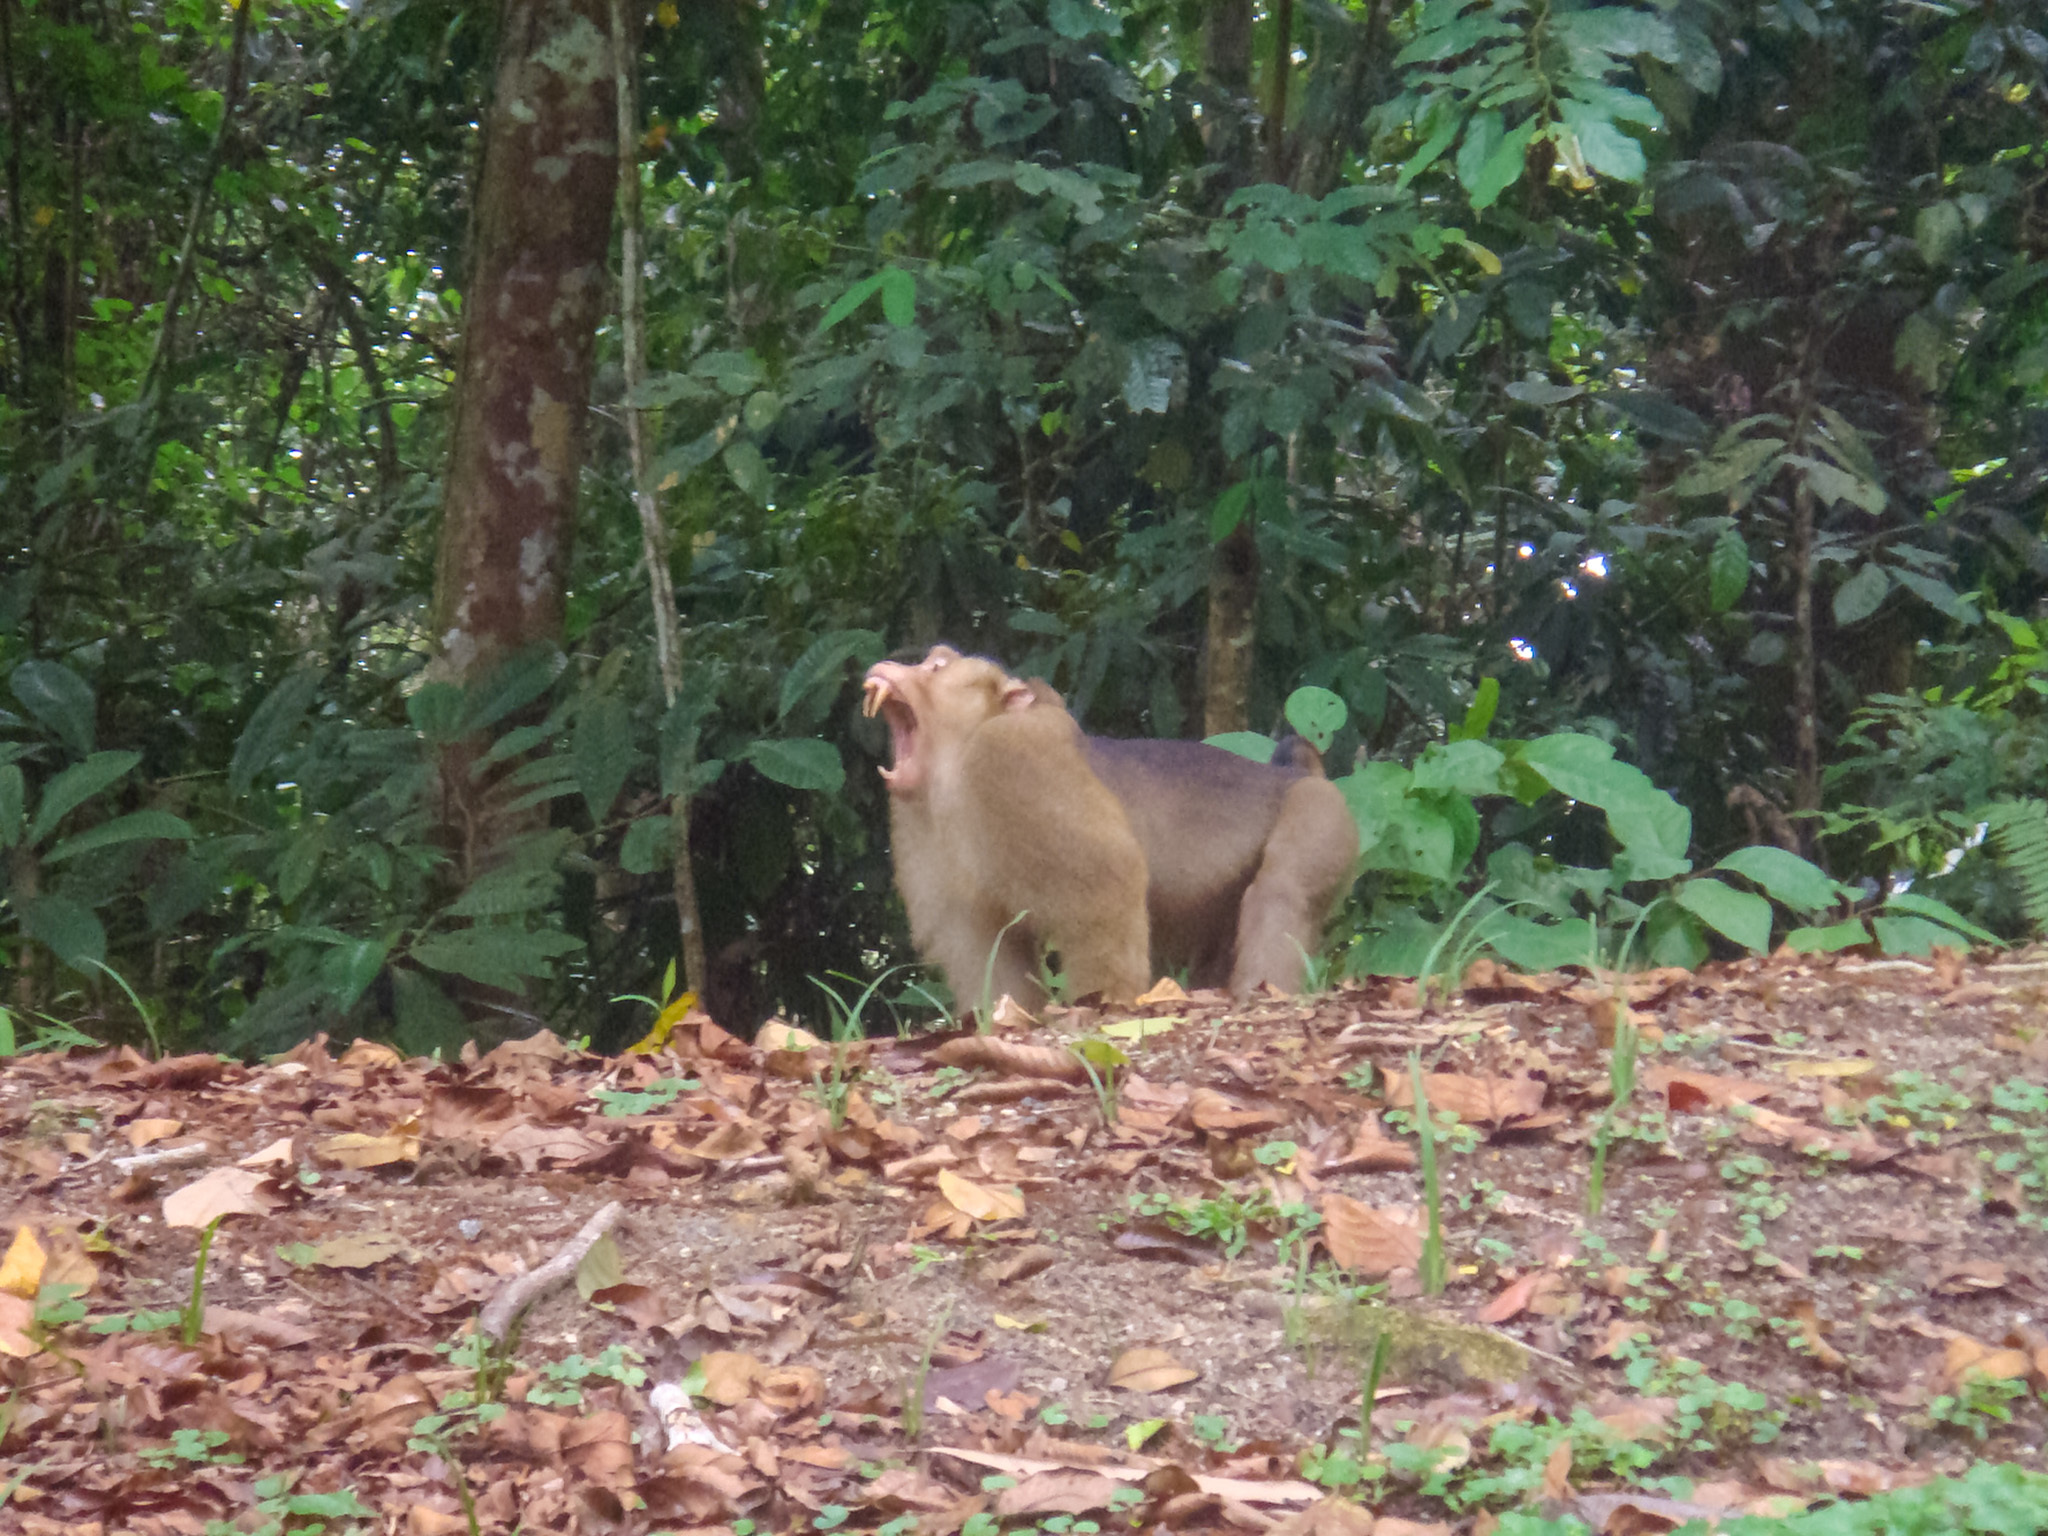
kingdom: Animalia
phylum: Chordata
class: Mammalia
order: Primates
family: Cercopithecidae
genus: Macaca
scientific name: Macaca nemestrina
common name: Southern pig-tailed macaque
